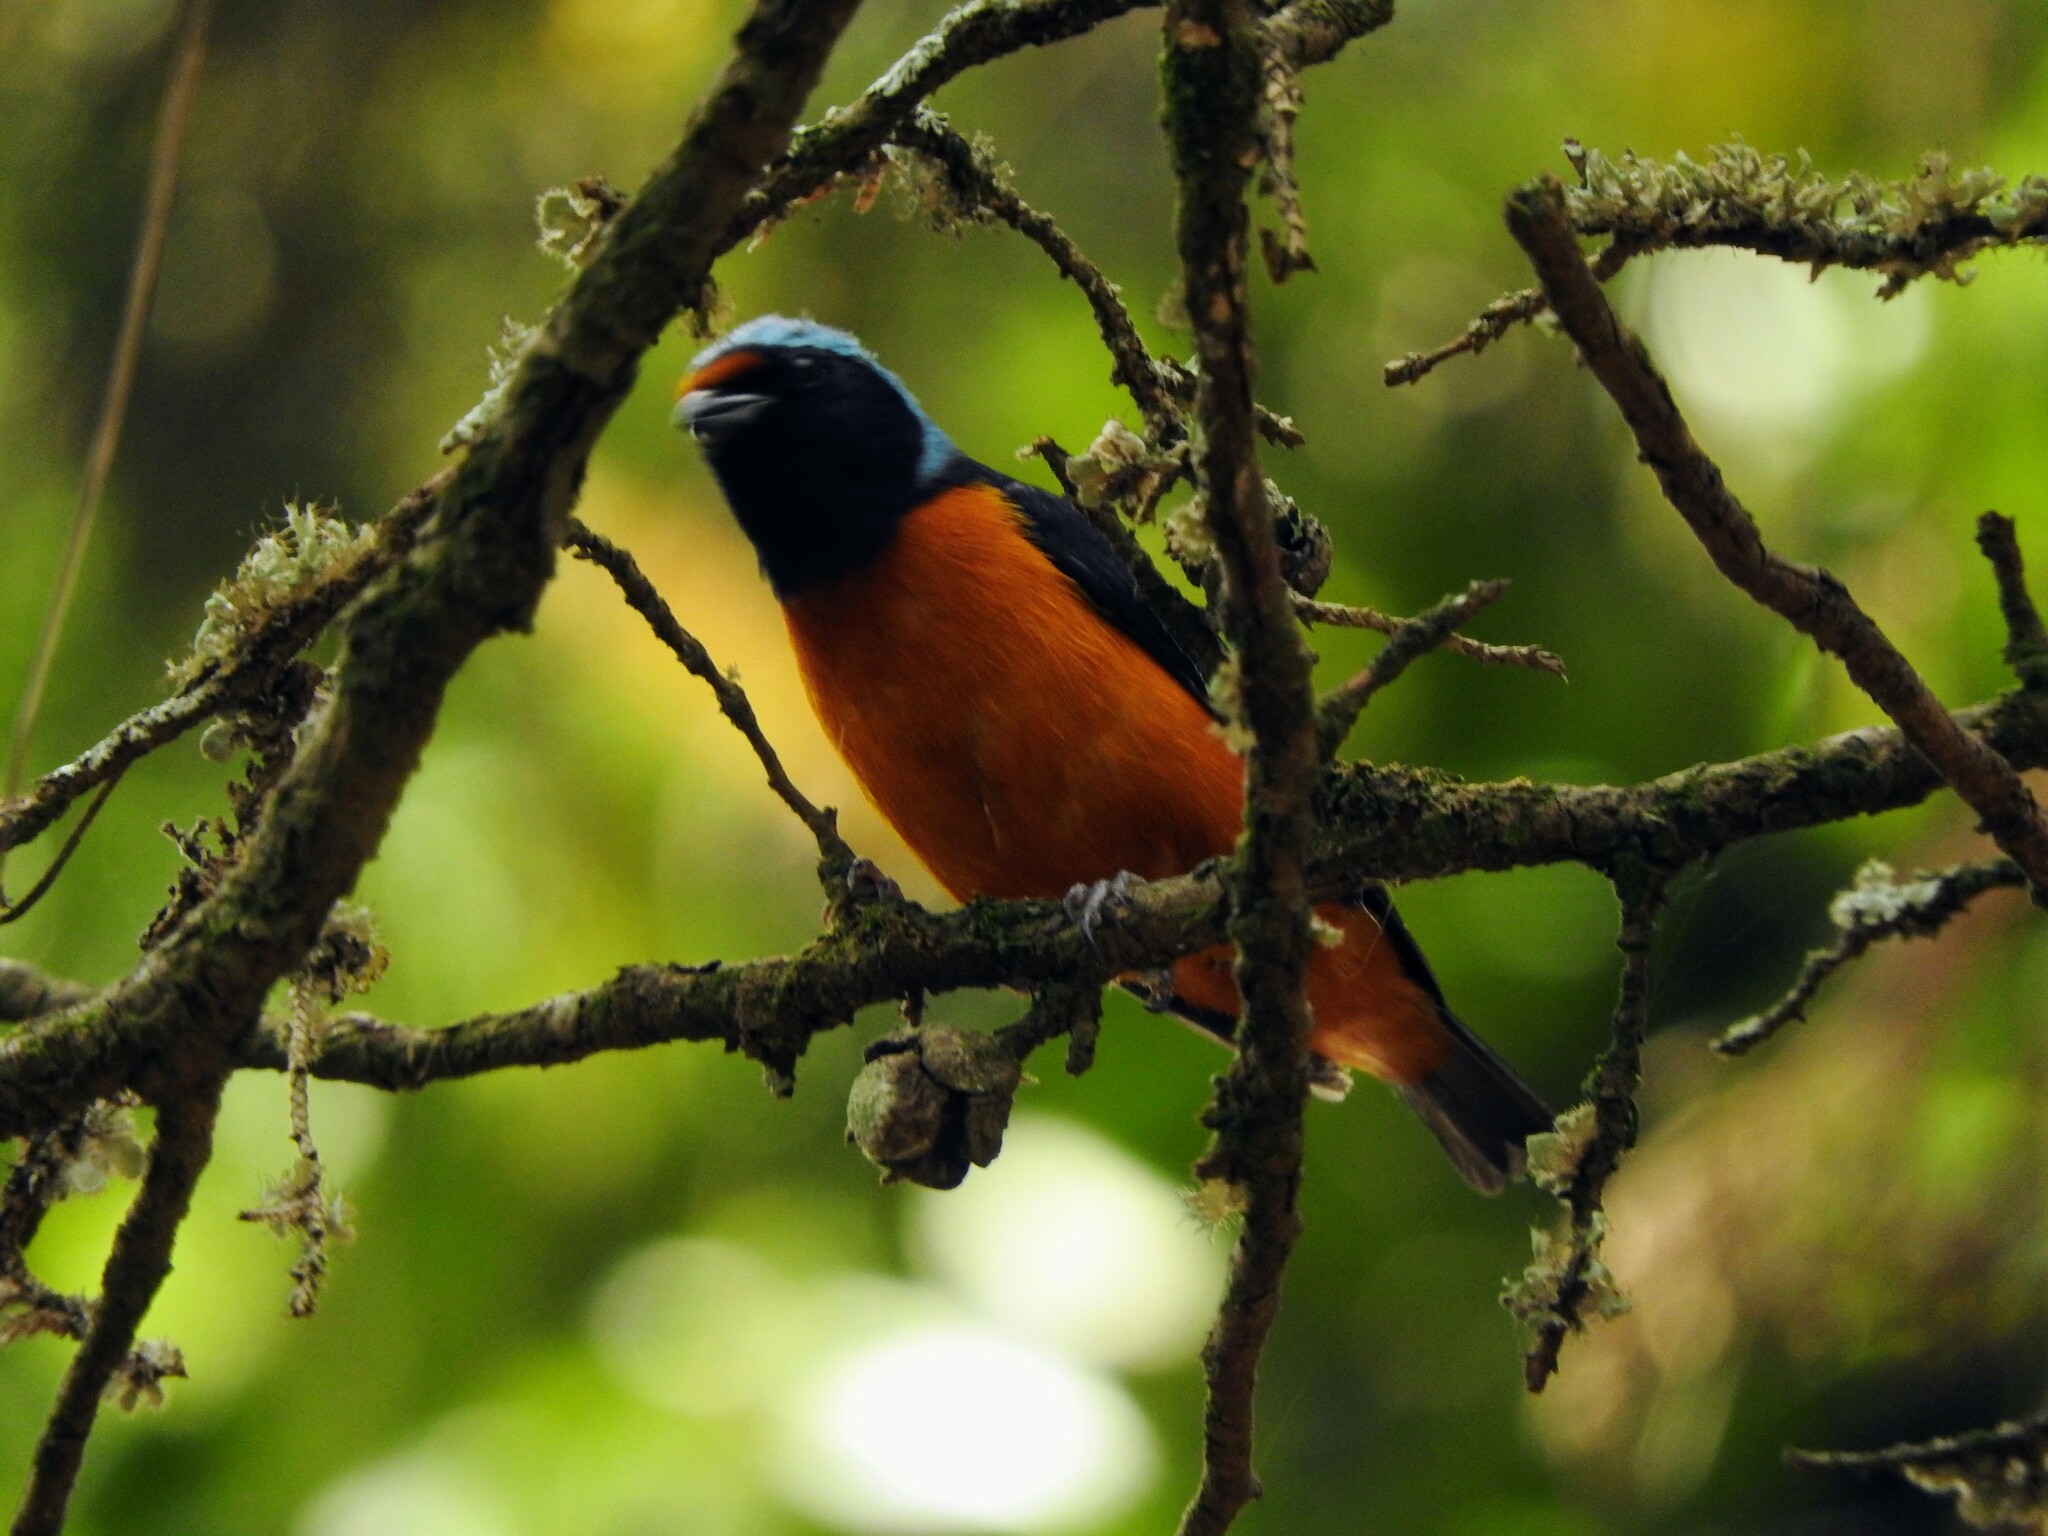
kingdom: Animalia
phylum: Chordata
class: Aves
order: Passeriformes
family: Fringillidae
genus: Euphonia
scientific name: Euphonia elegantissima
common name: Elegant euphonia
